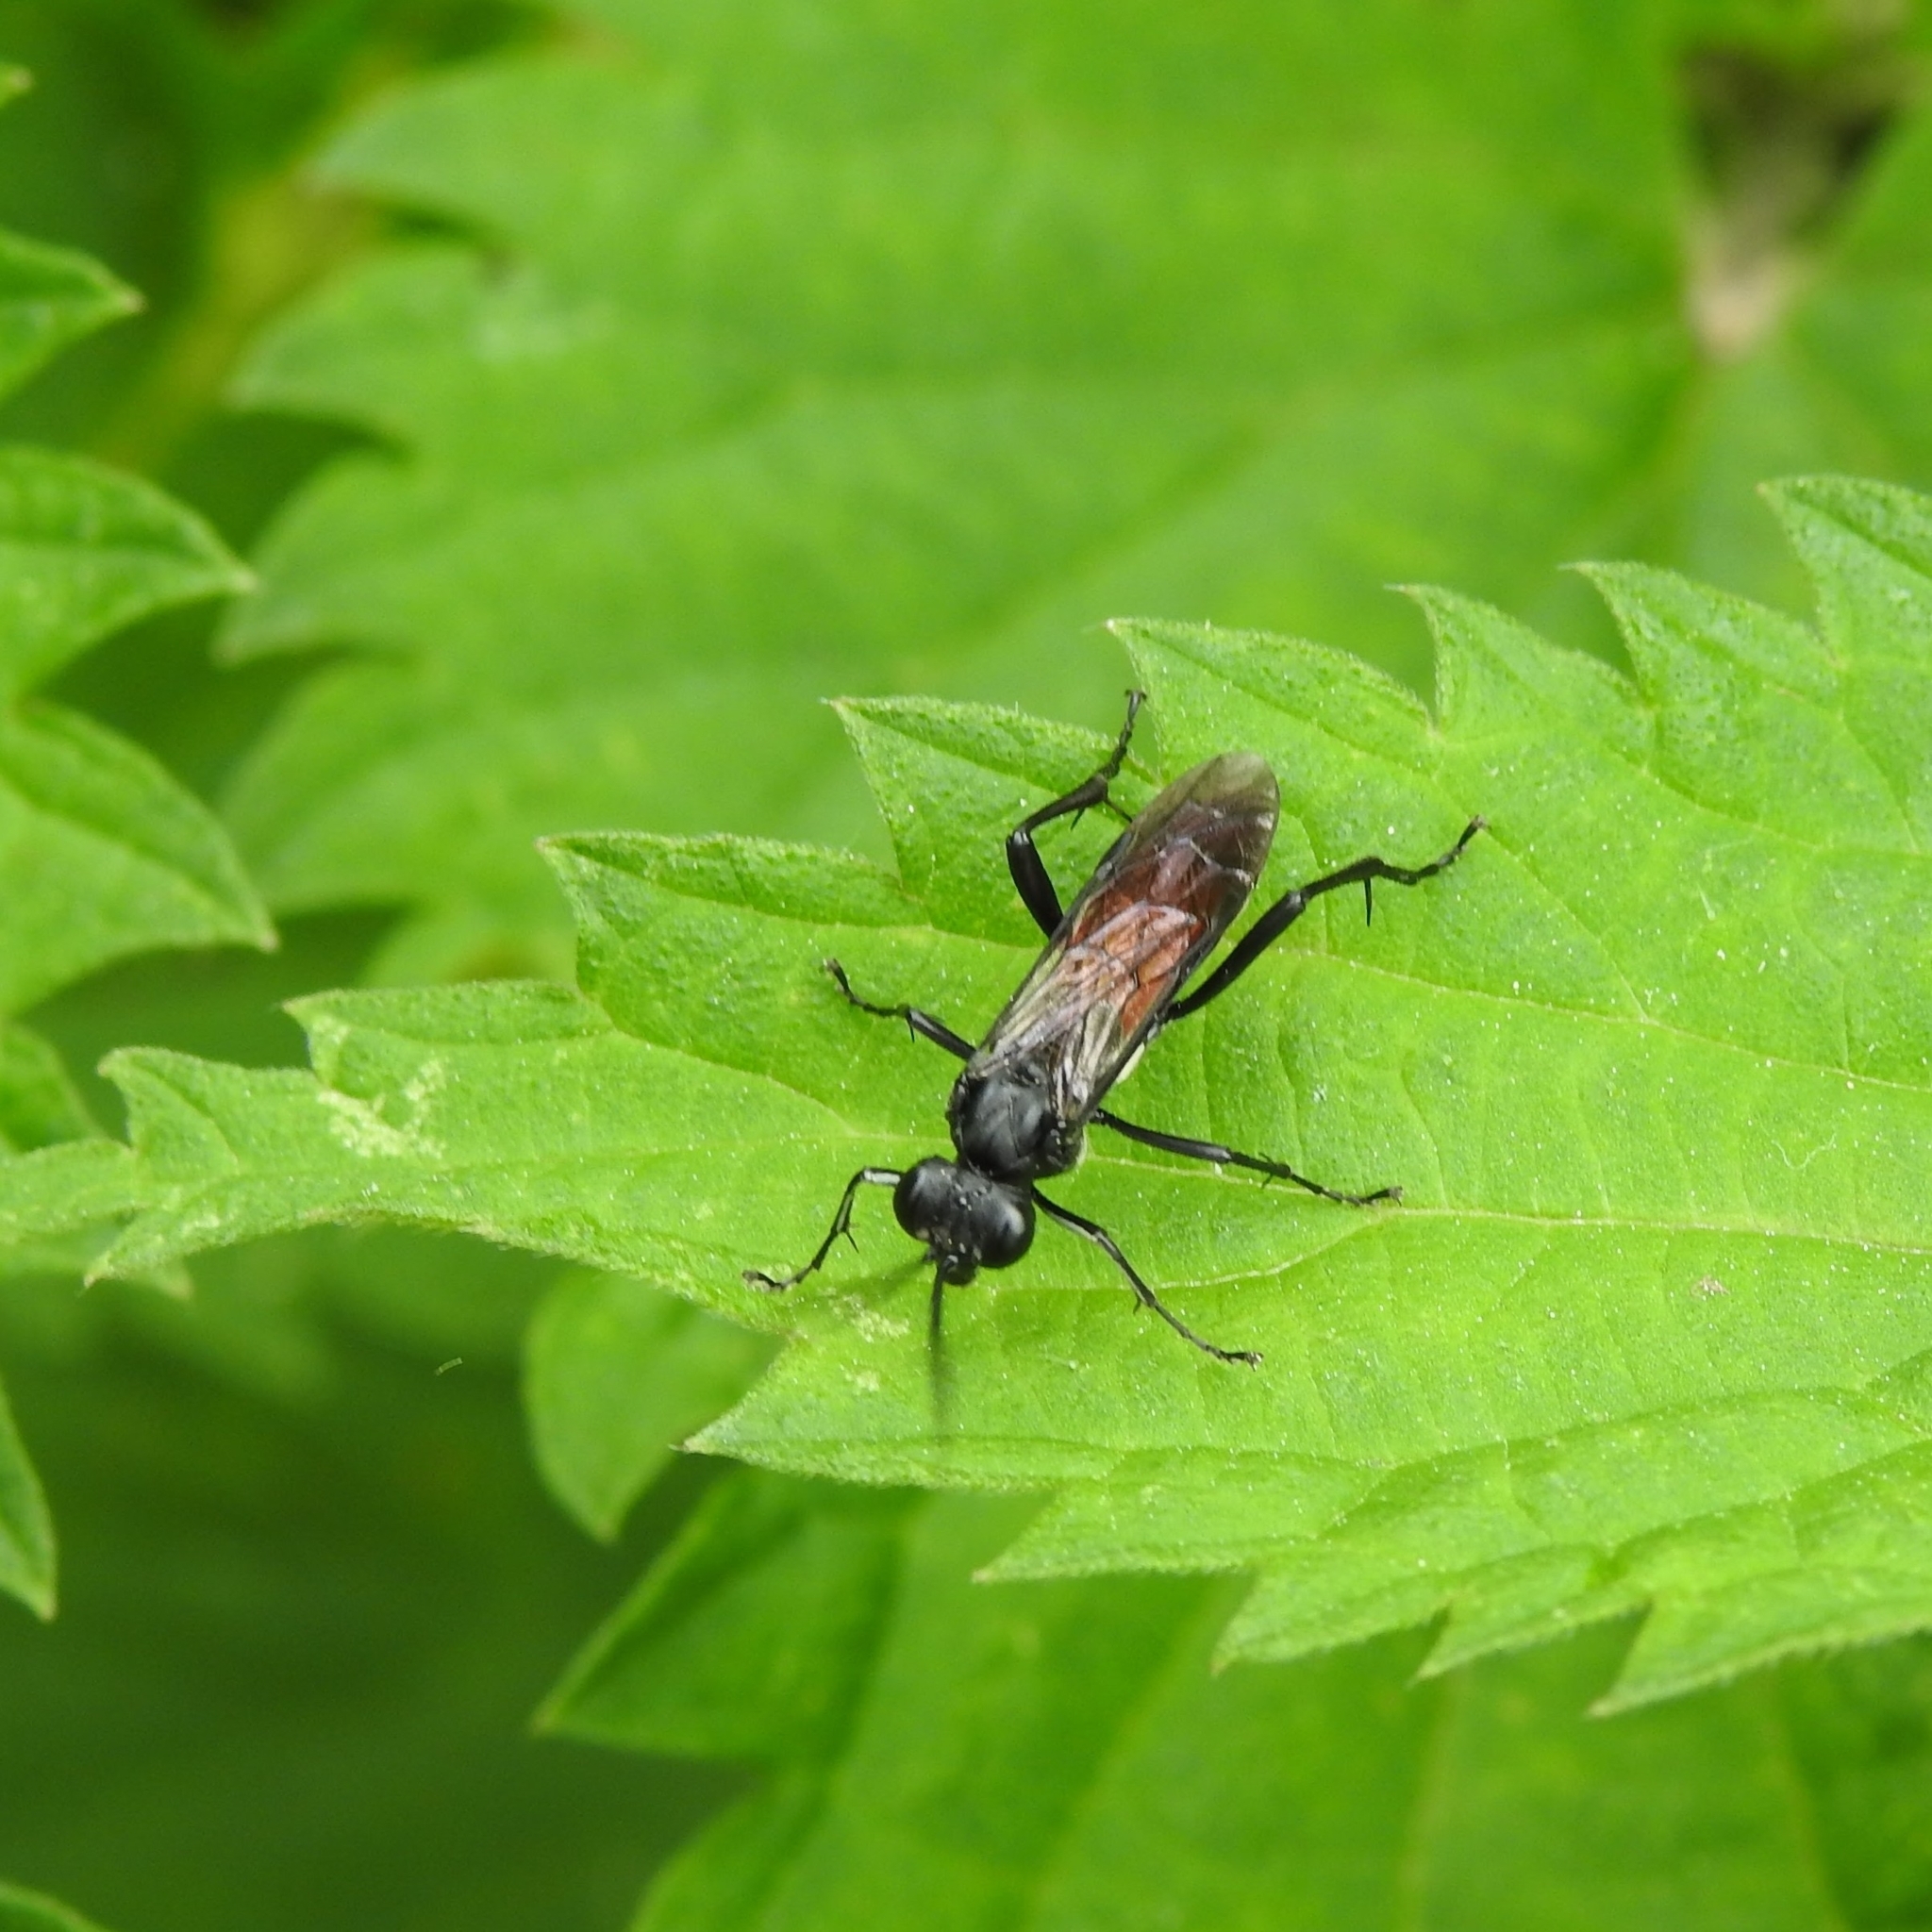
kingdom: Animalia
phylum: Arthropoda
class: Insecta
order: Hymenoptera
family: Tenthredinidae
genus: Macrophya
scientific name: Macrophya blanda
